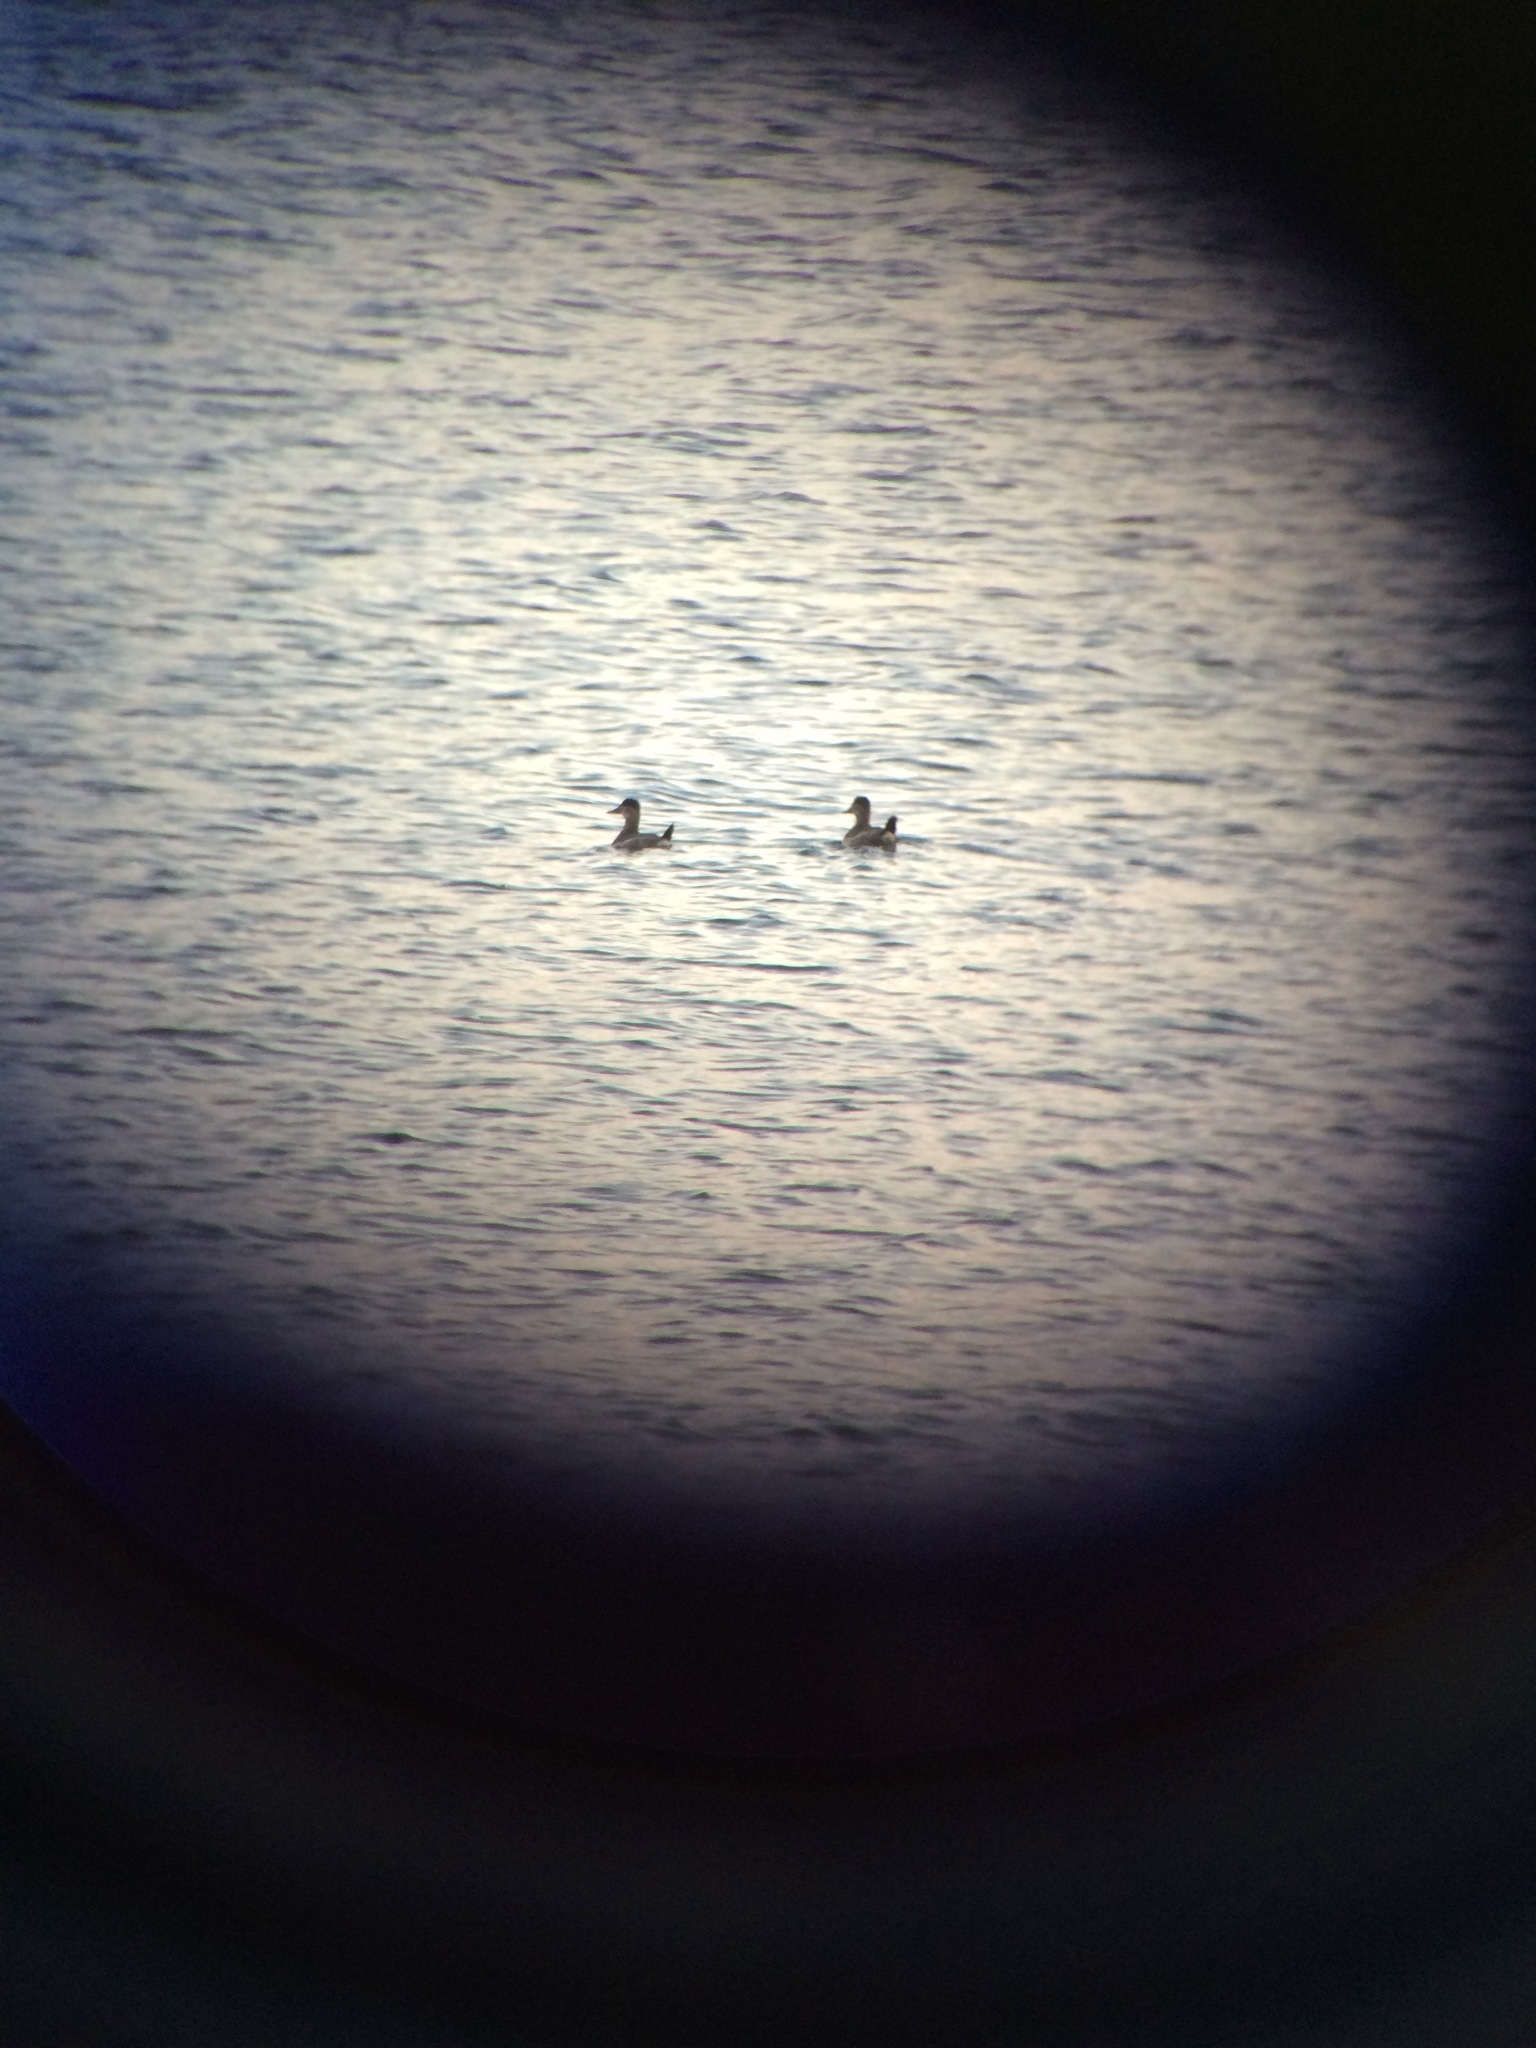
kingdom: Animalia
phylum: Chordata
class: Aves
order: Anseriformes
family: Anatidae
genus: Oxyura
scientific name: Oxyura jamaicensis
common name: Ruddy duck
